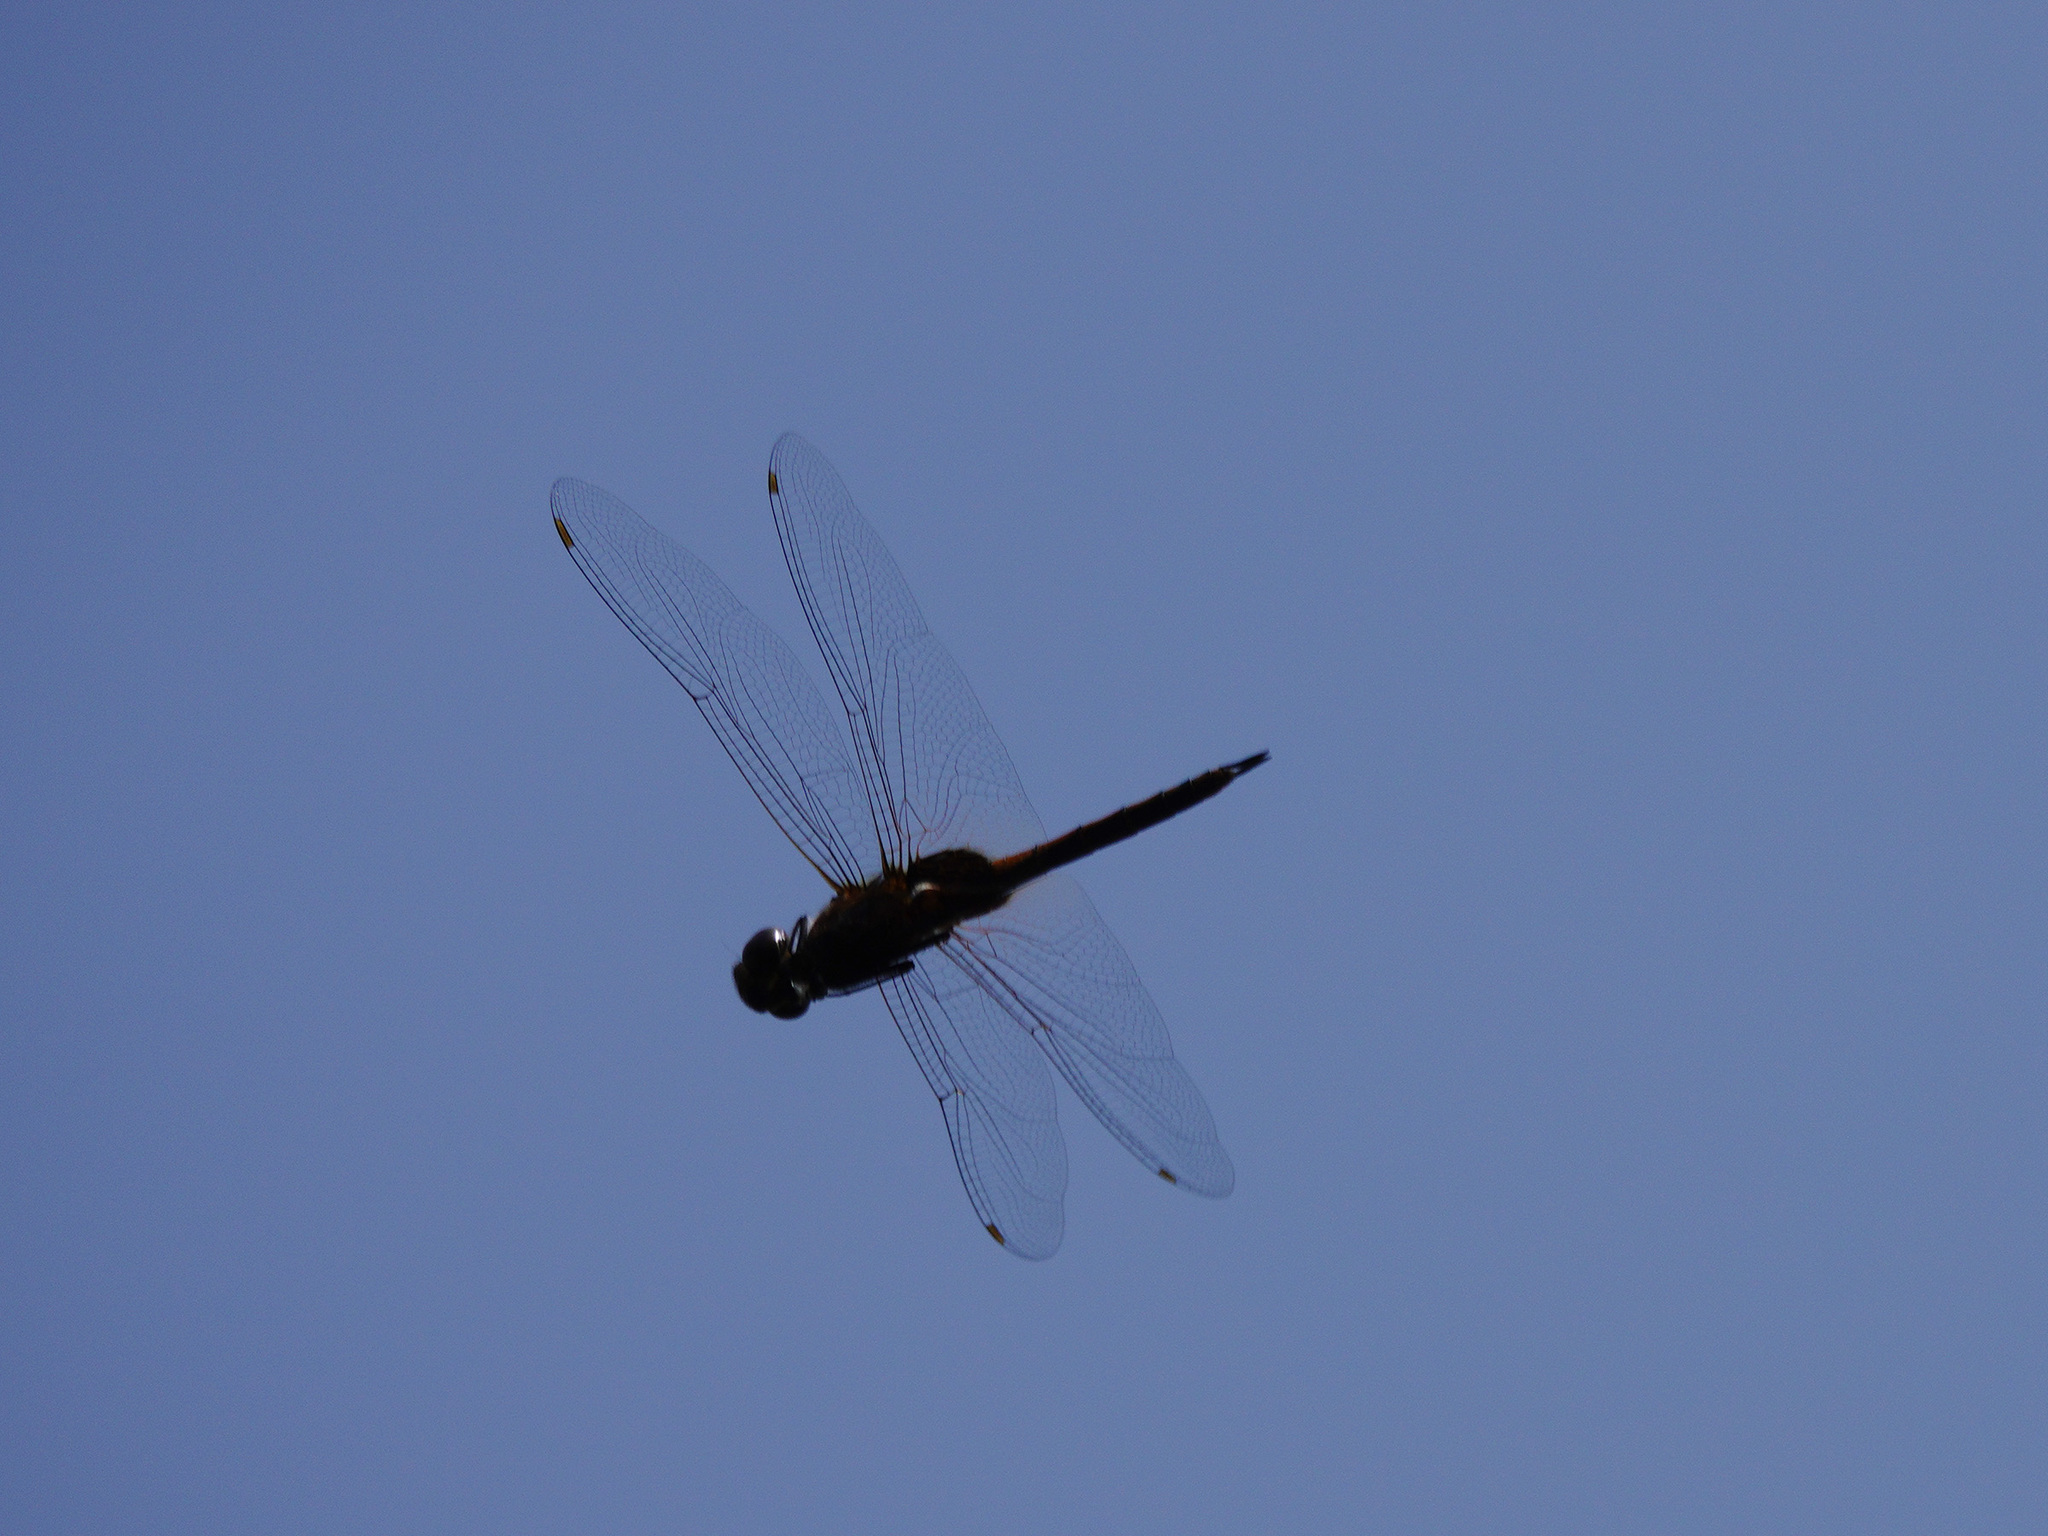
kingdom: Animalia
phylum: Arthropoda
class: Insecta
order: Odonata
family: Libellulidae
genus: Tramea
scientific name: Tramea transmarina
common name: Red glider dragonfly
